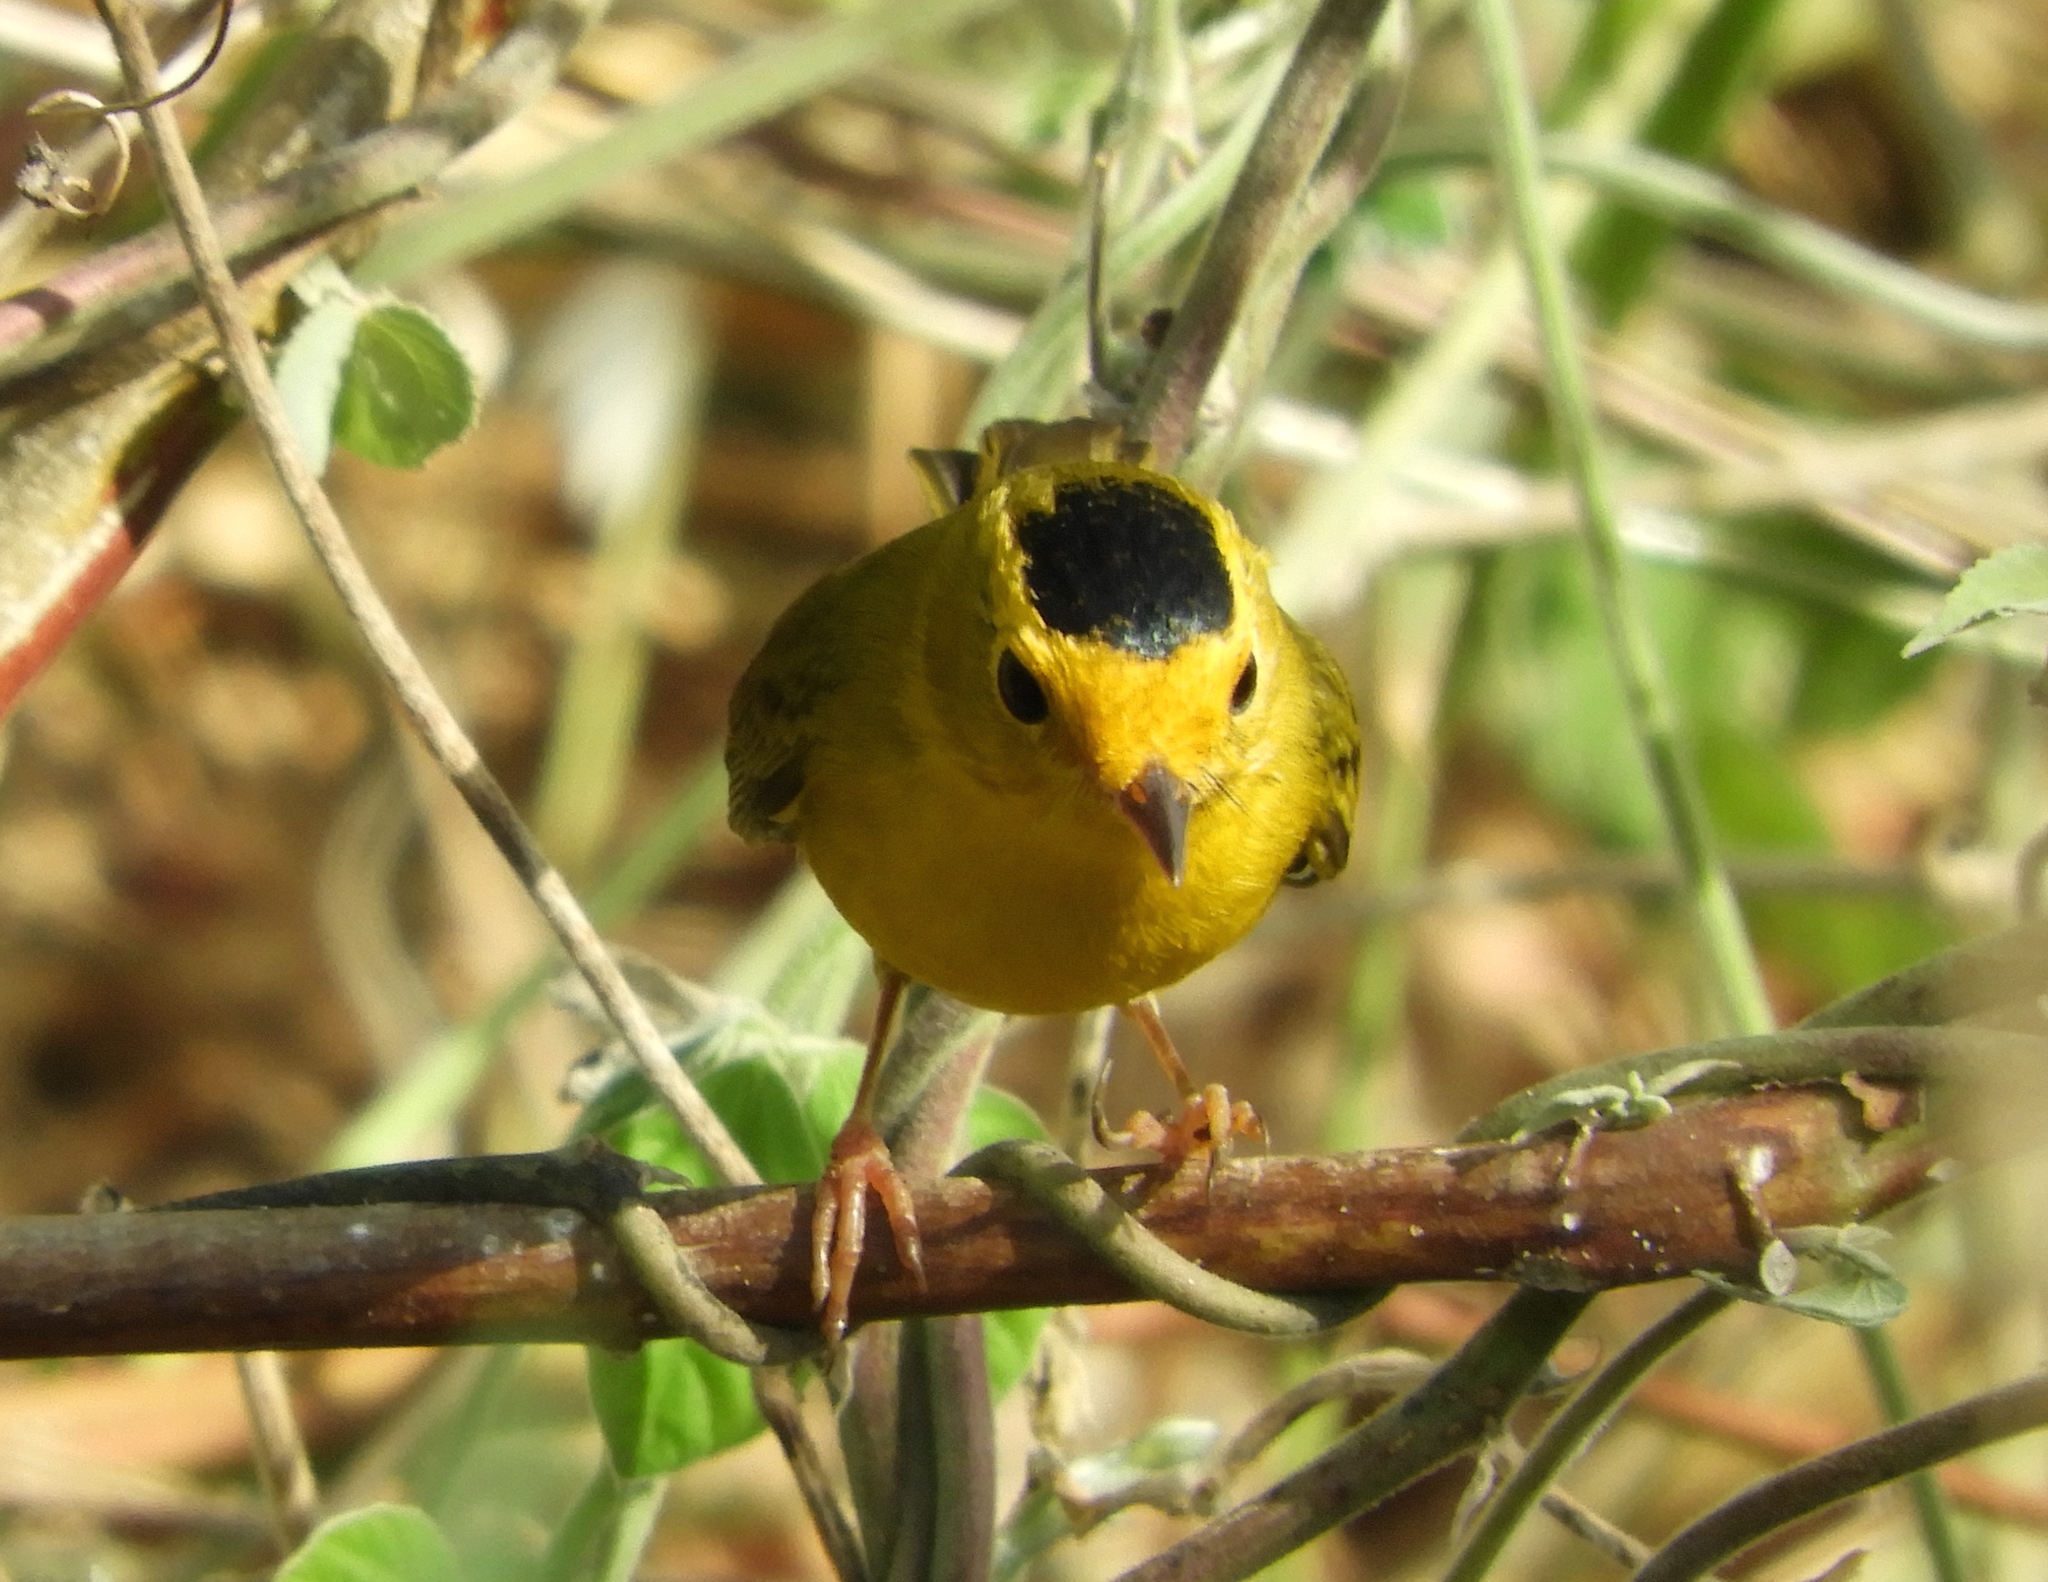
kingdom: Animalia
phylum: Chordata
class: Aves
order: Passeriformes
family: Parulidae
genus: Cardellina
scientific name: Cardellina pusilla
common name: Wilson's warbler
